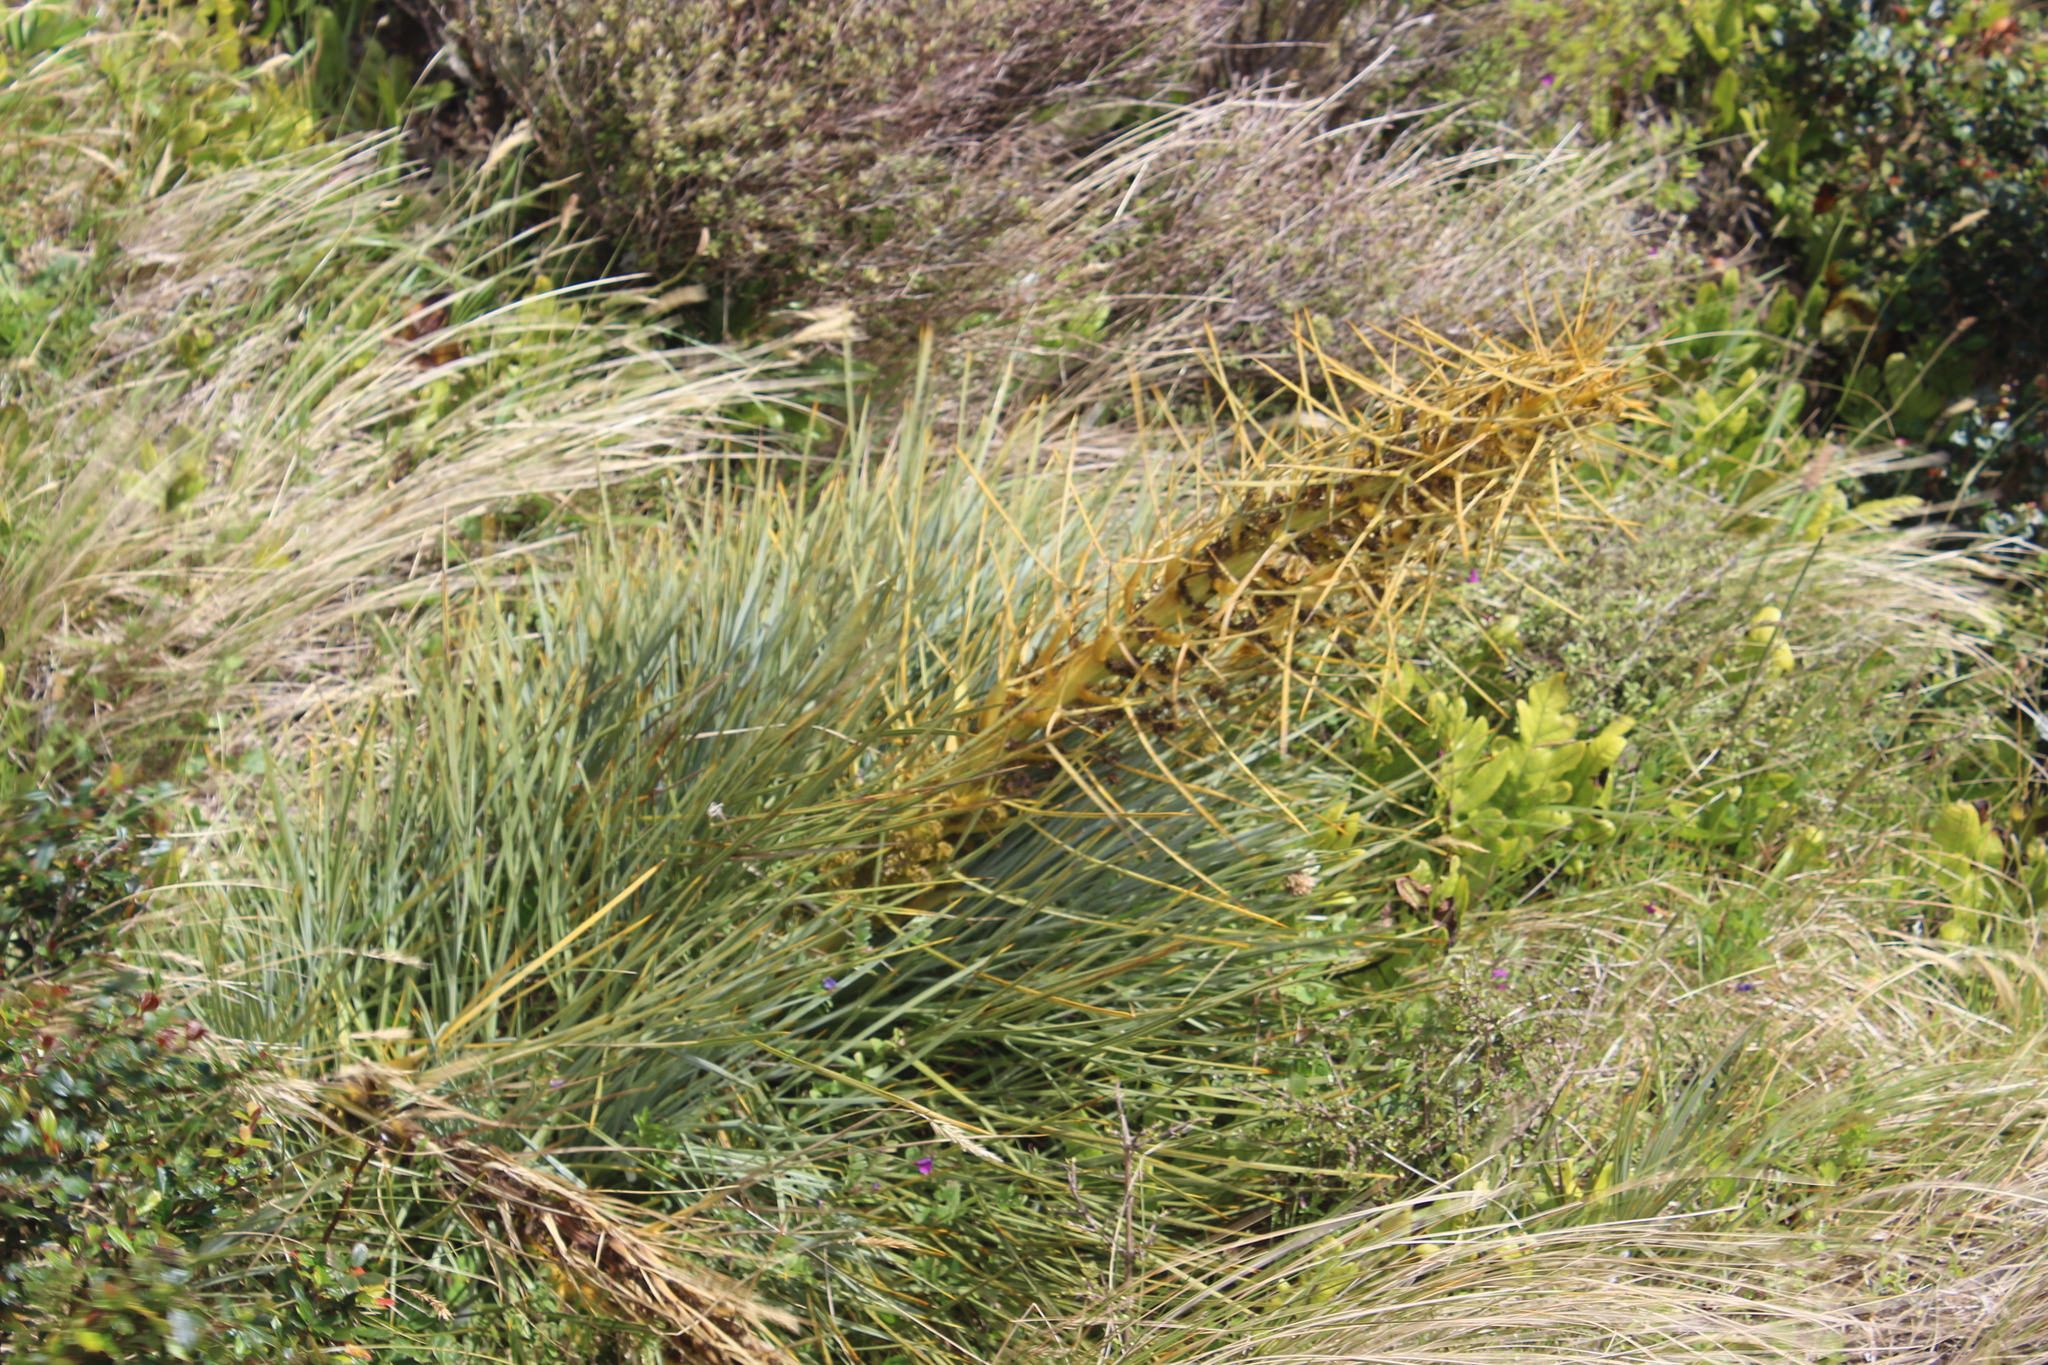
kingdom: Plantae
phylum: Tracheophyta
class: Magnoliopsida
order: Apiales
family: Apiaceae
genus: Aciphylla
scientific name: Aciphylla squarrosa
